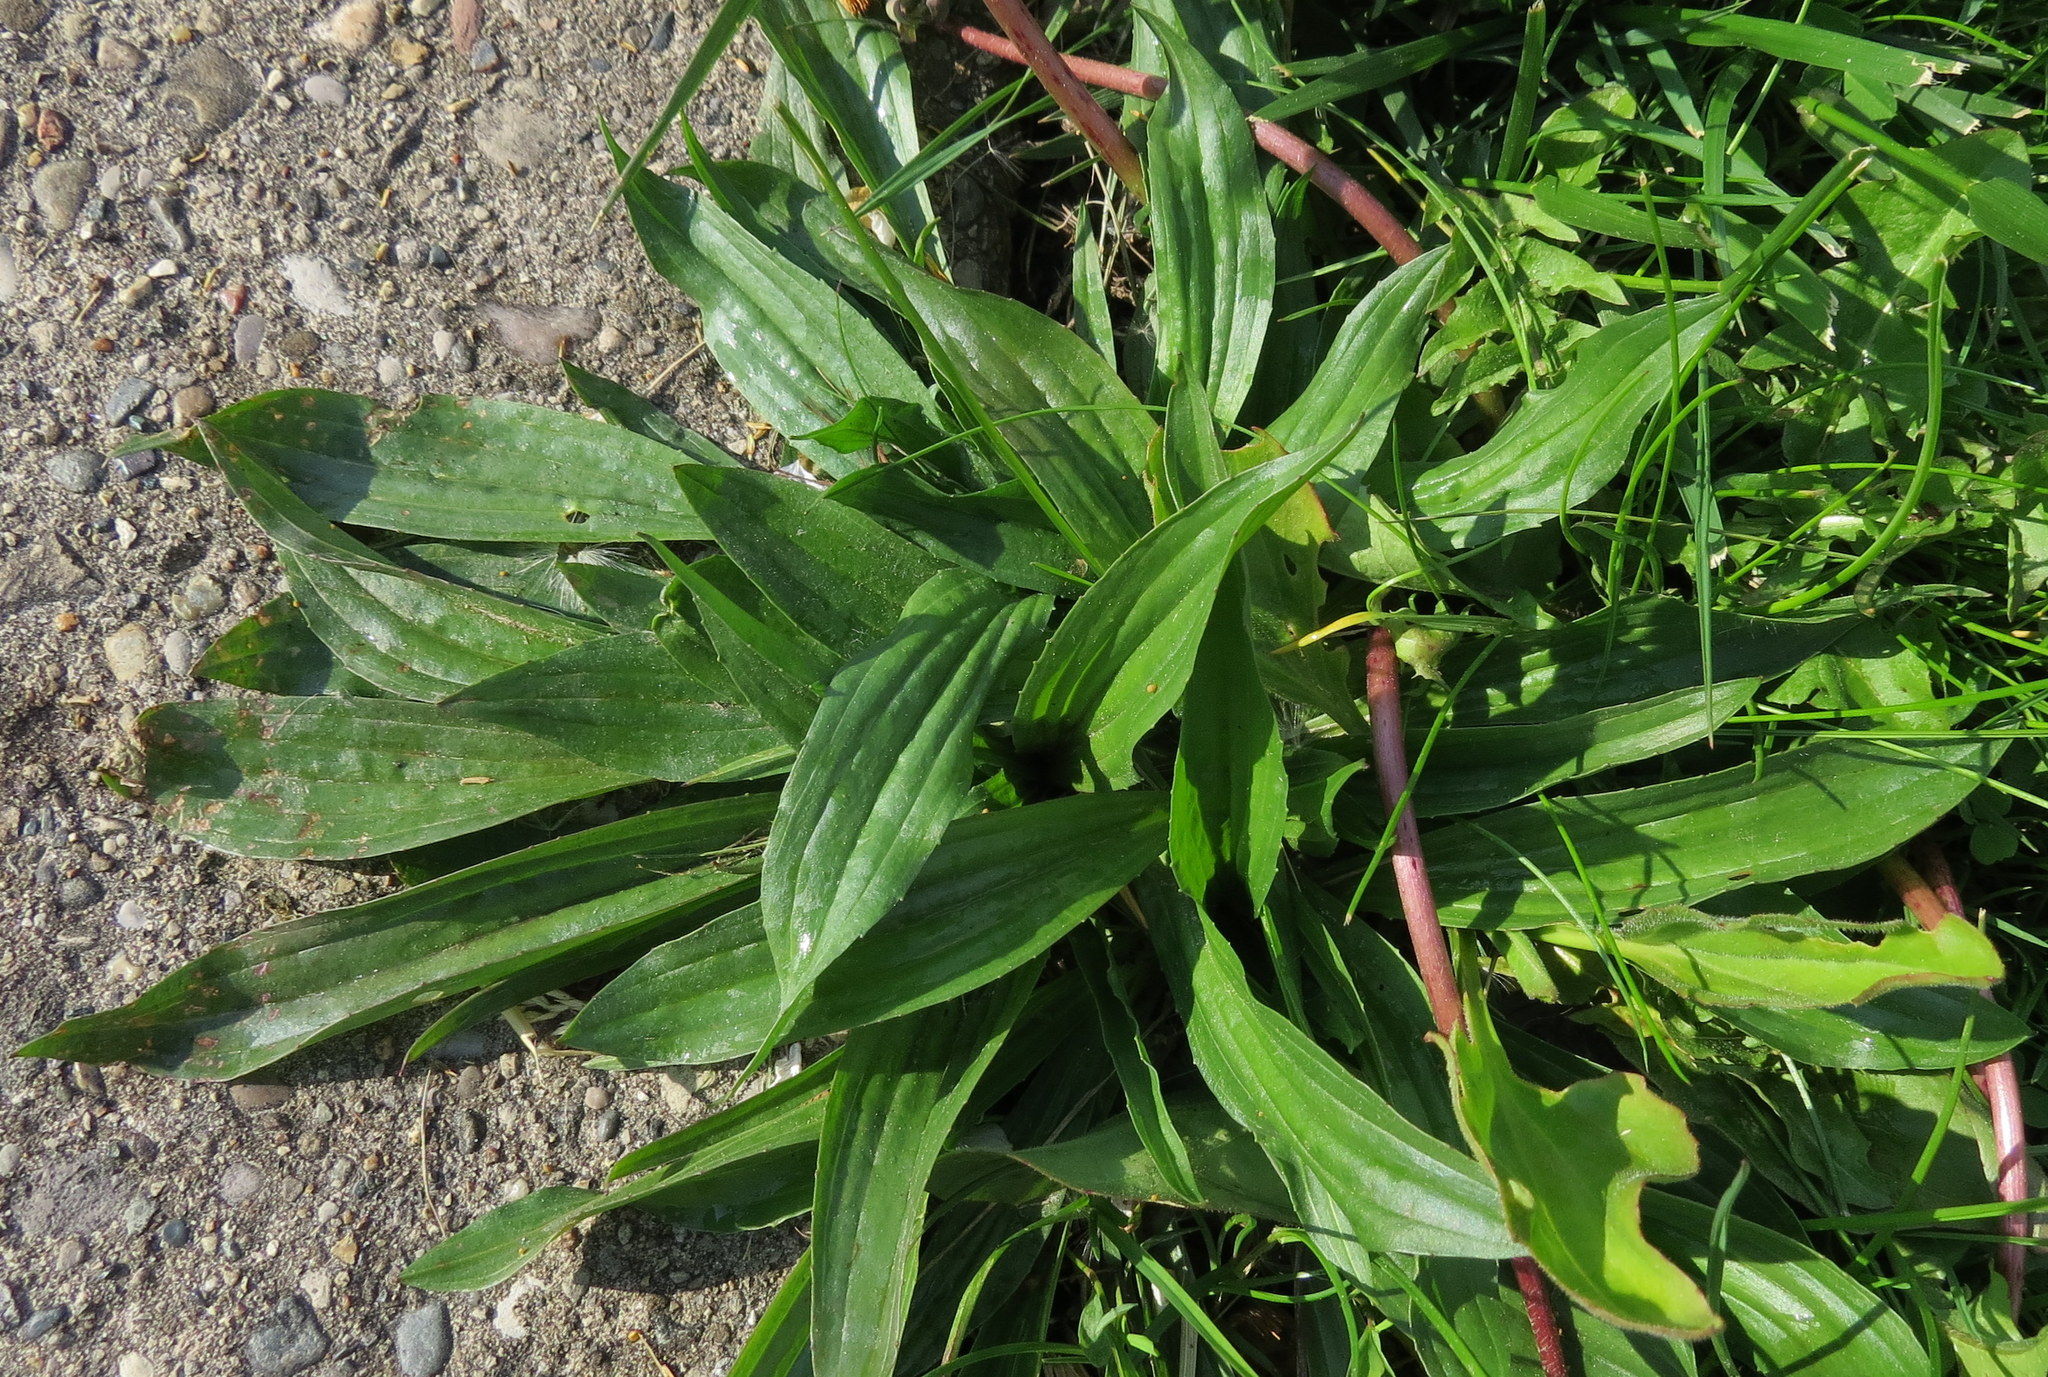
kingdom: Plantae
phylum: Tracheophyta
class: Magnoliopsida
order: Lamiales
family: Plantaginaceae
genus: Plantago
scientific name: Plantago lanceolata
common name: Ribwort plantain
